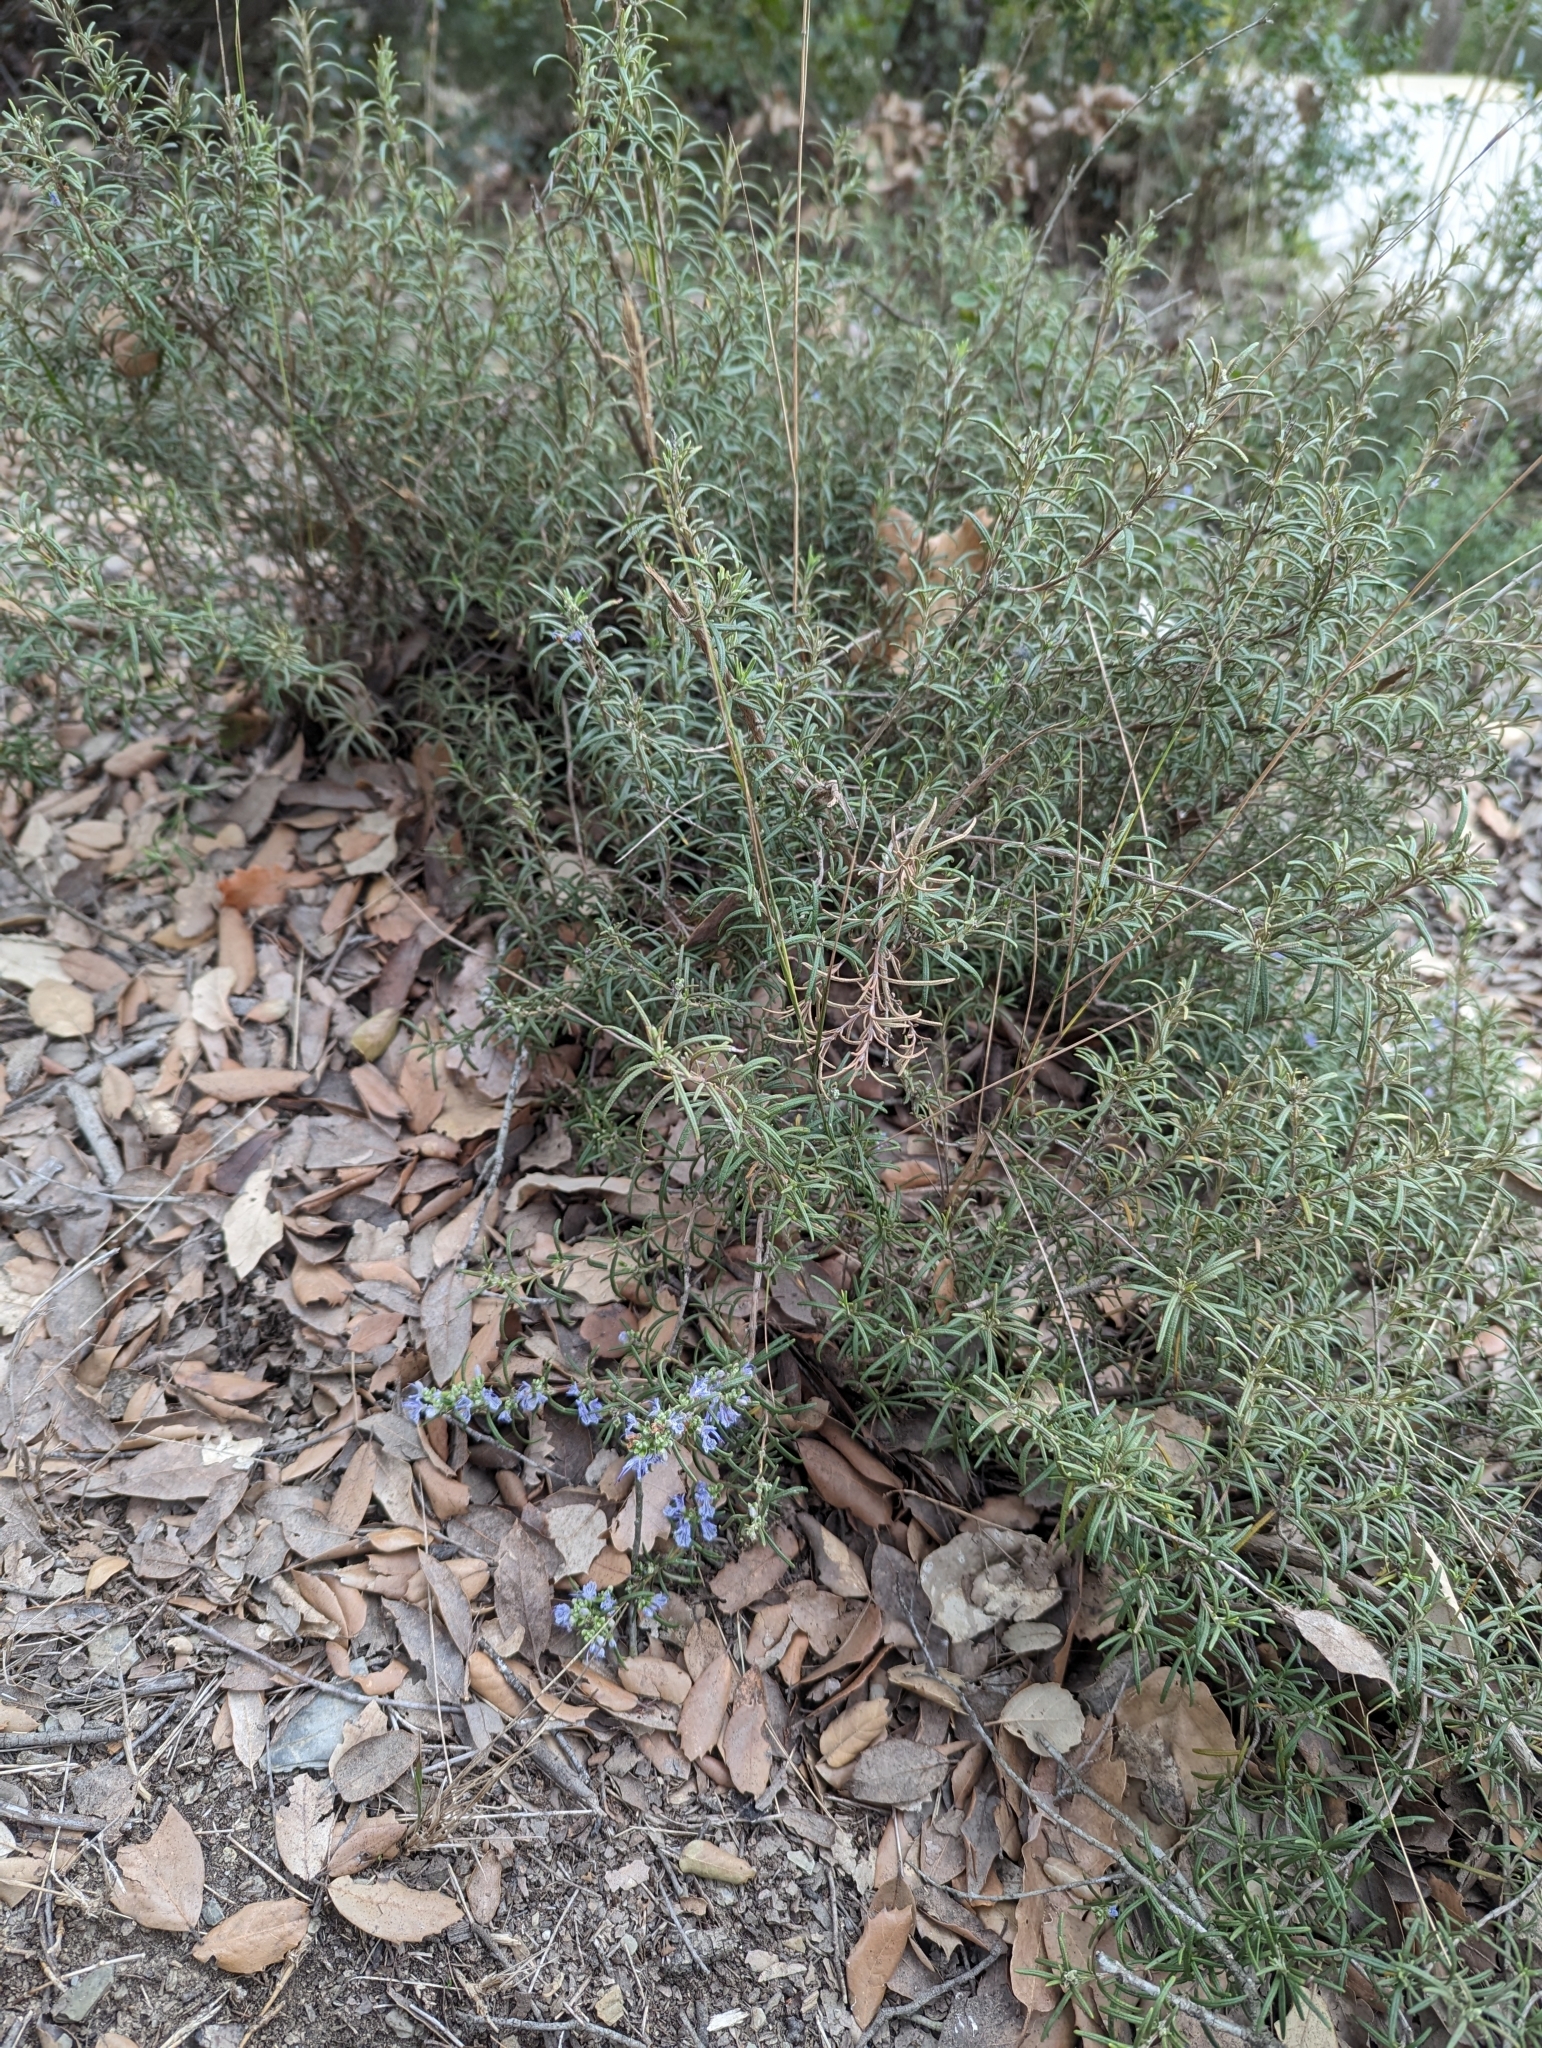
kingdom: Plantae
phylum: Tracheophyta
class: Magnoliopsida
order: Lamiales
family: Lamiaceae
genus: Salvia
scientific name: Salvia rosmarinus
